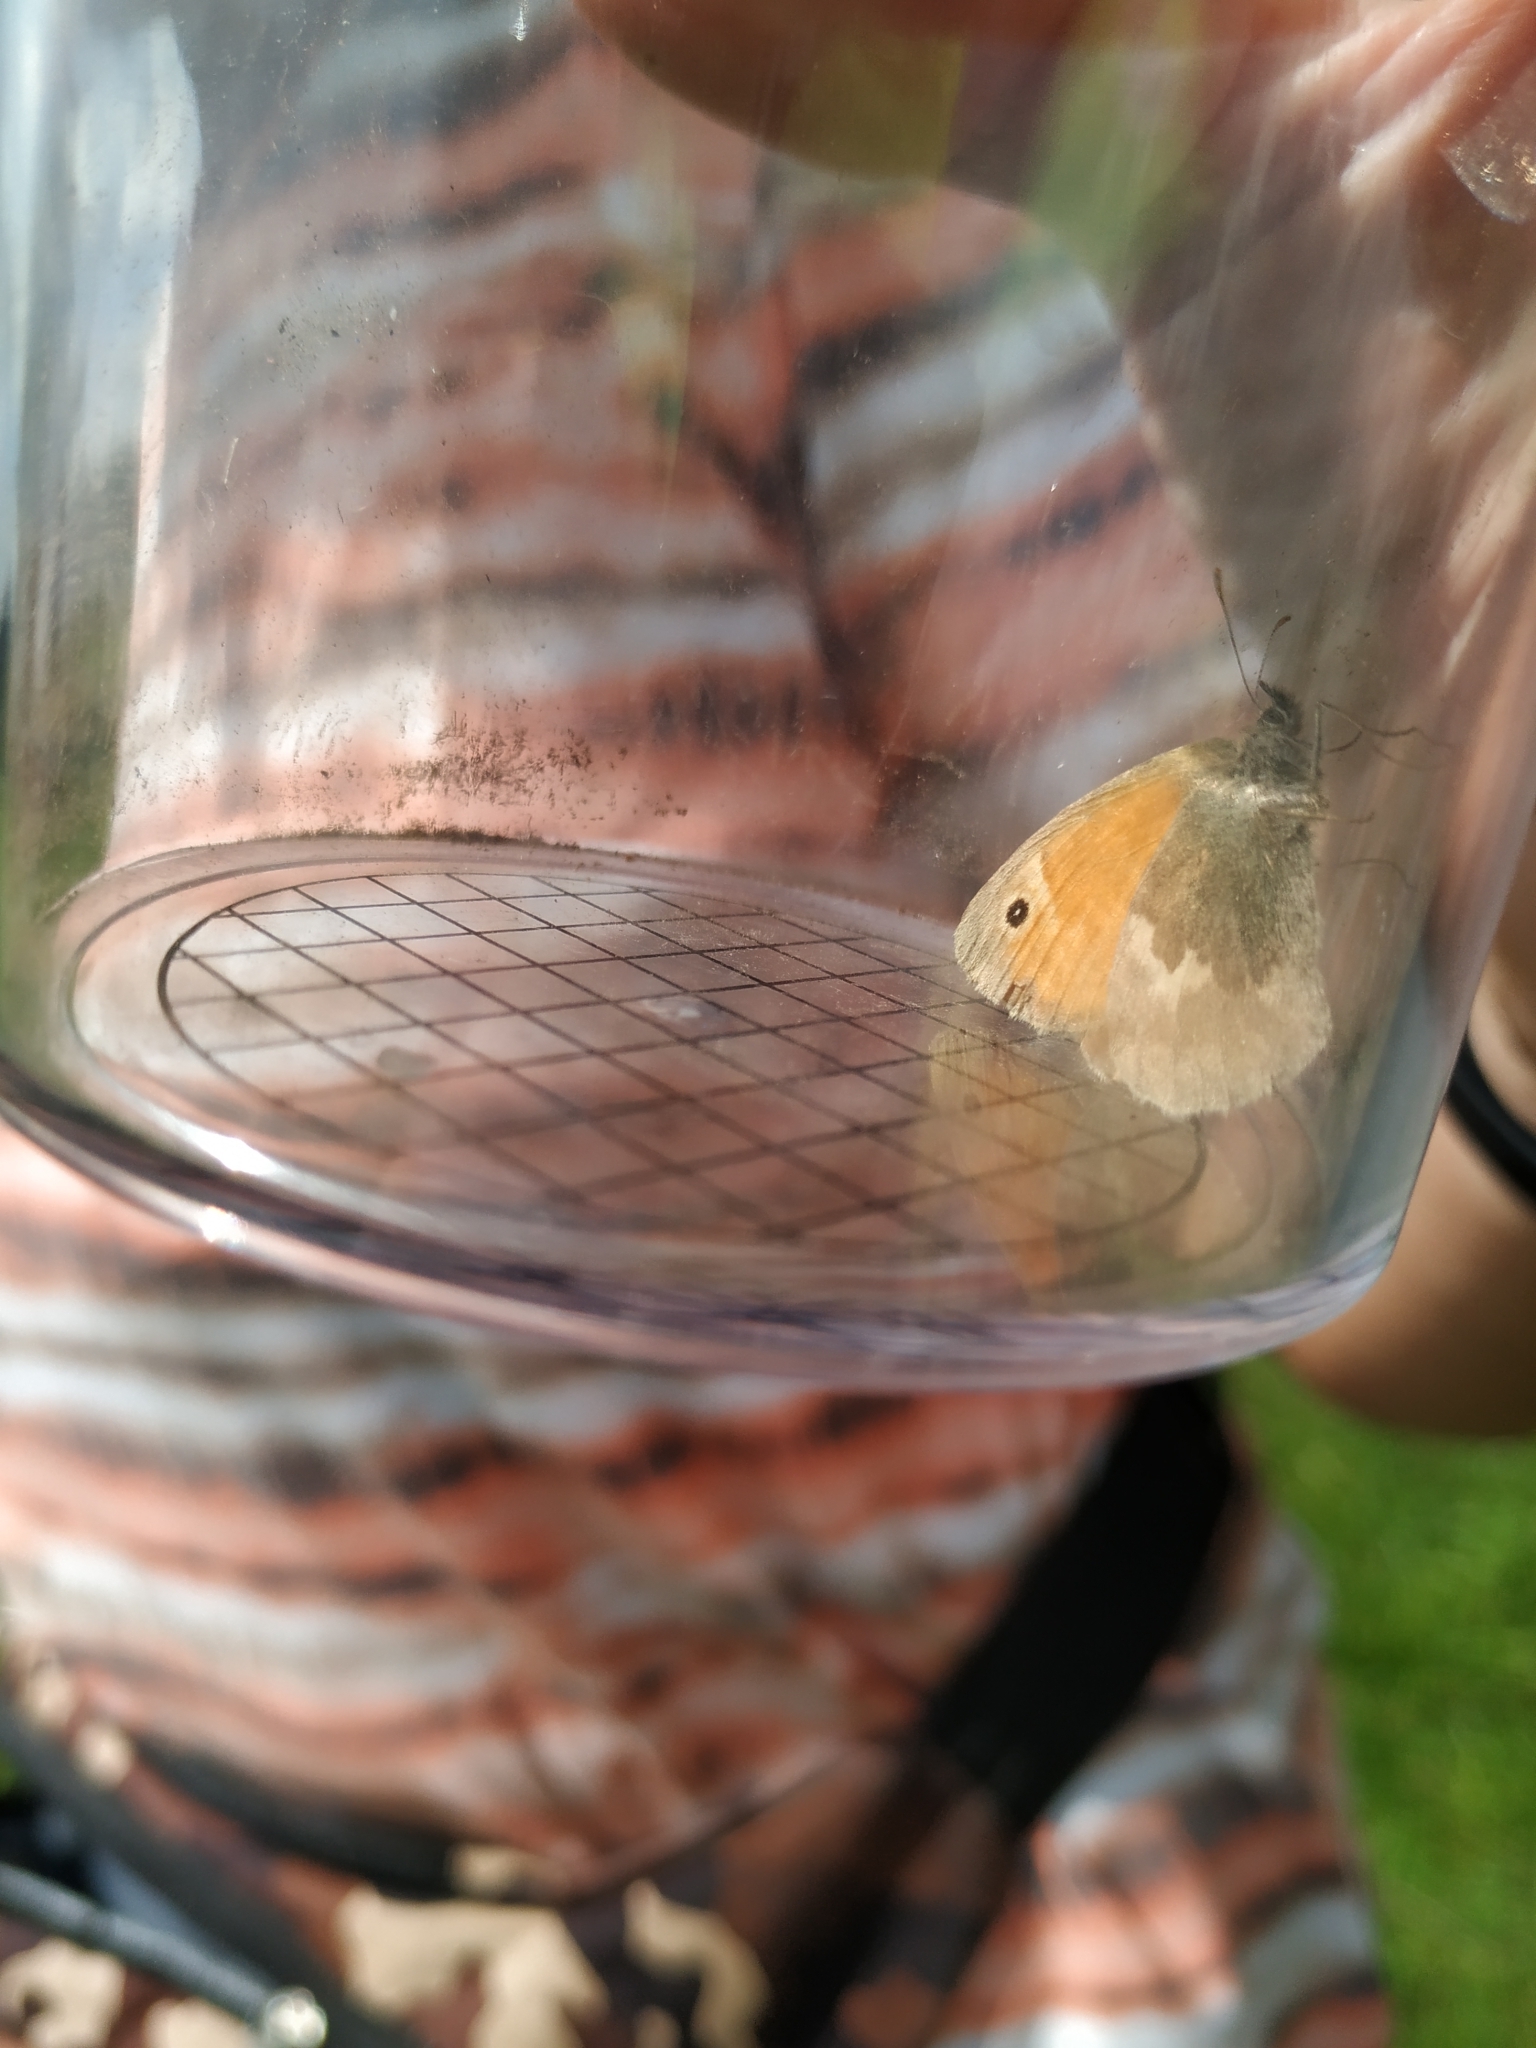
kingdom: Animalia
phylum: Arthropoda
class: Insecta
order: Lepidoptera
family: Nymphalidae
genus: Coenonympha
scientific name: Coenonympha pamphilus
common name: Small heath
